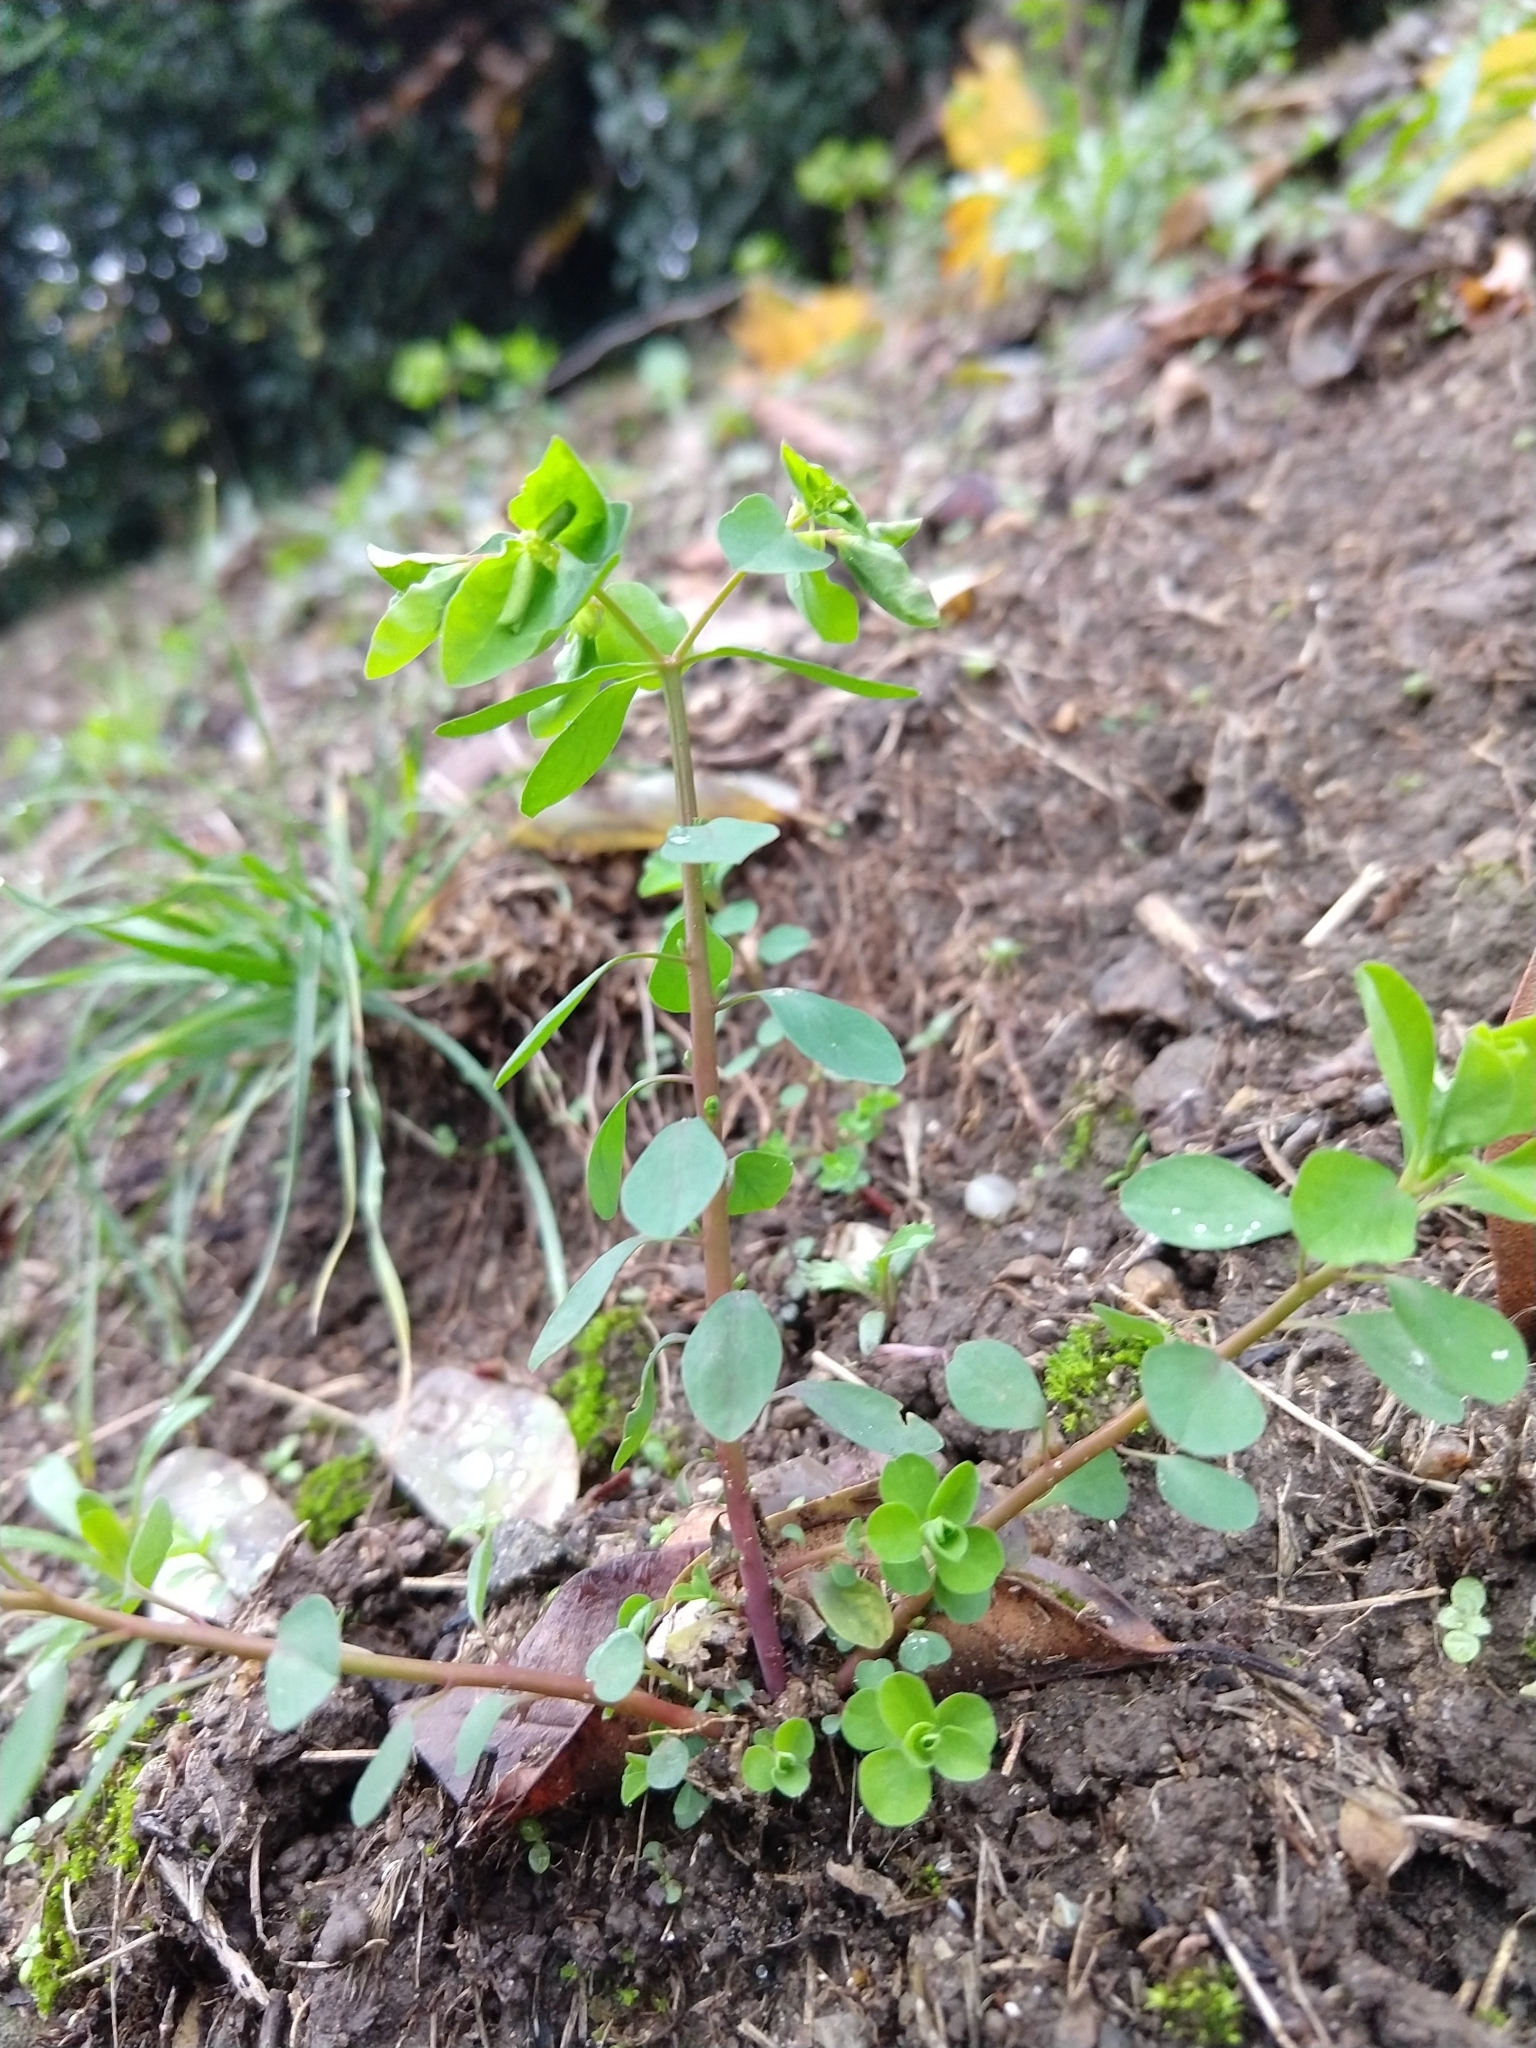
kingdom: Plantae
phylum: Tracheophyta
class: Magnoliopsida
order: Malpighiales
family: Euphorbiaceae
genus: Euphorbia
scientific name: Euphorbia peplus
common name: Petty spurge
